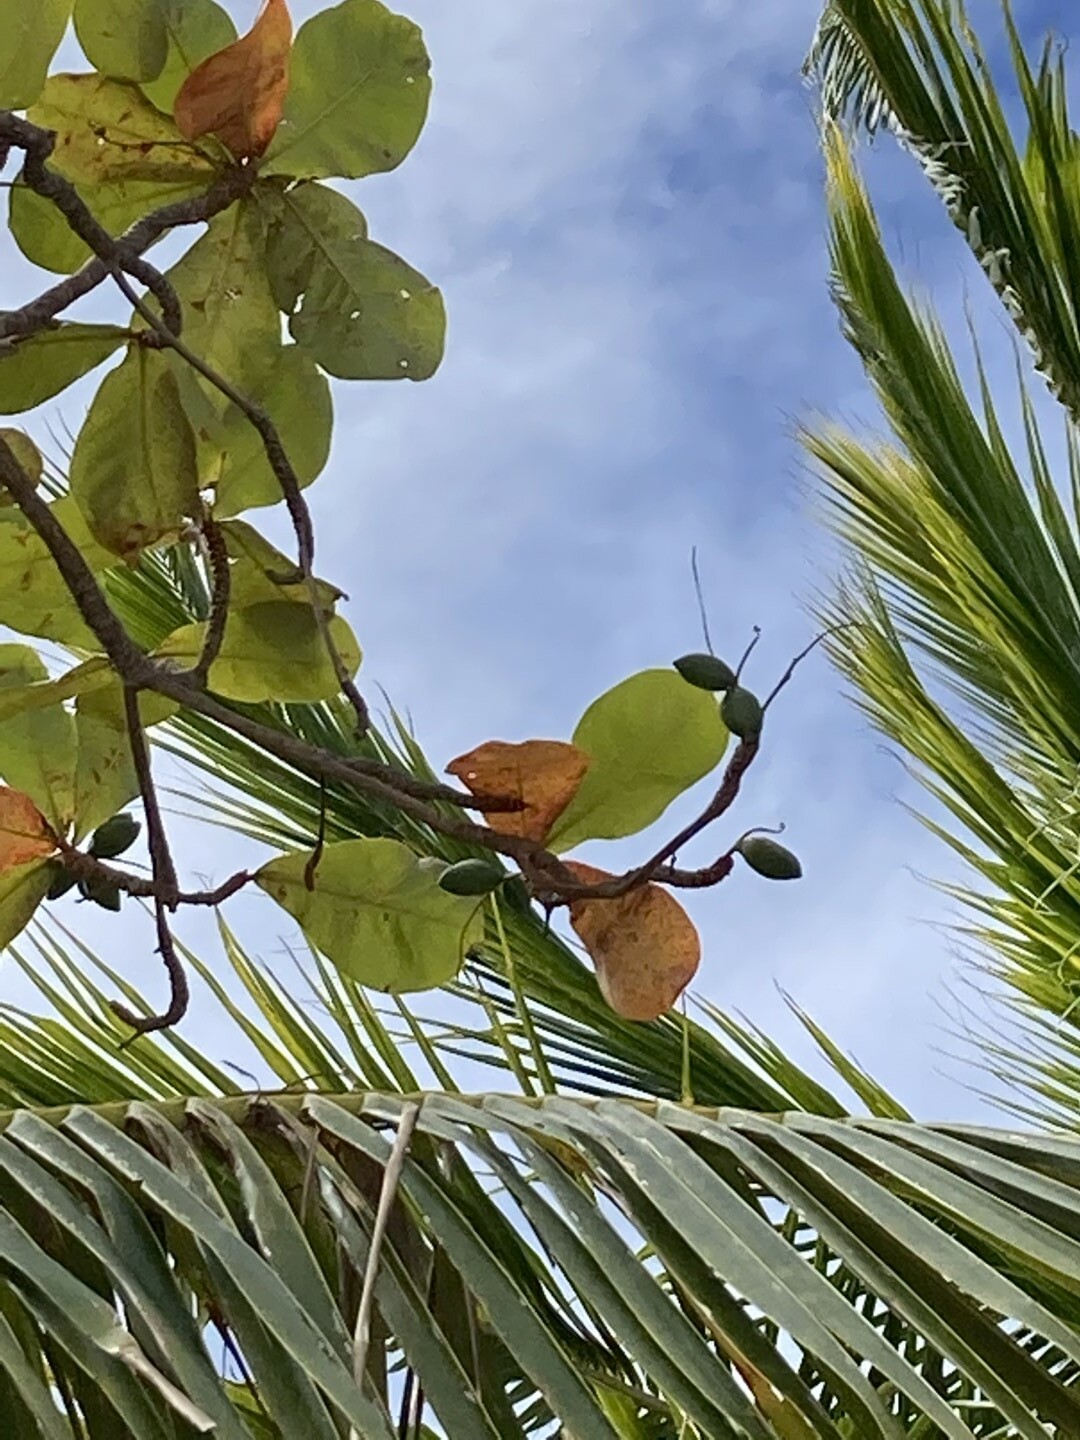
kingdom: Plantae
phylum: Tracheophyta
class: Magnoliopsida
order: Myrtales
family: Combretaceae
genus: Terminalia
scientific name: Terminalia catappa
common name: Tropical almond
